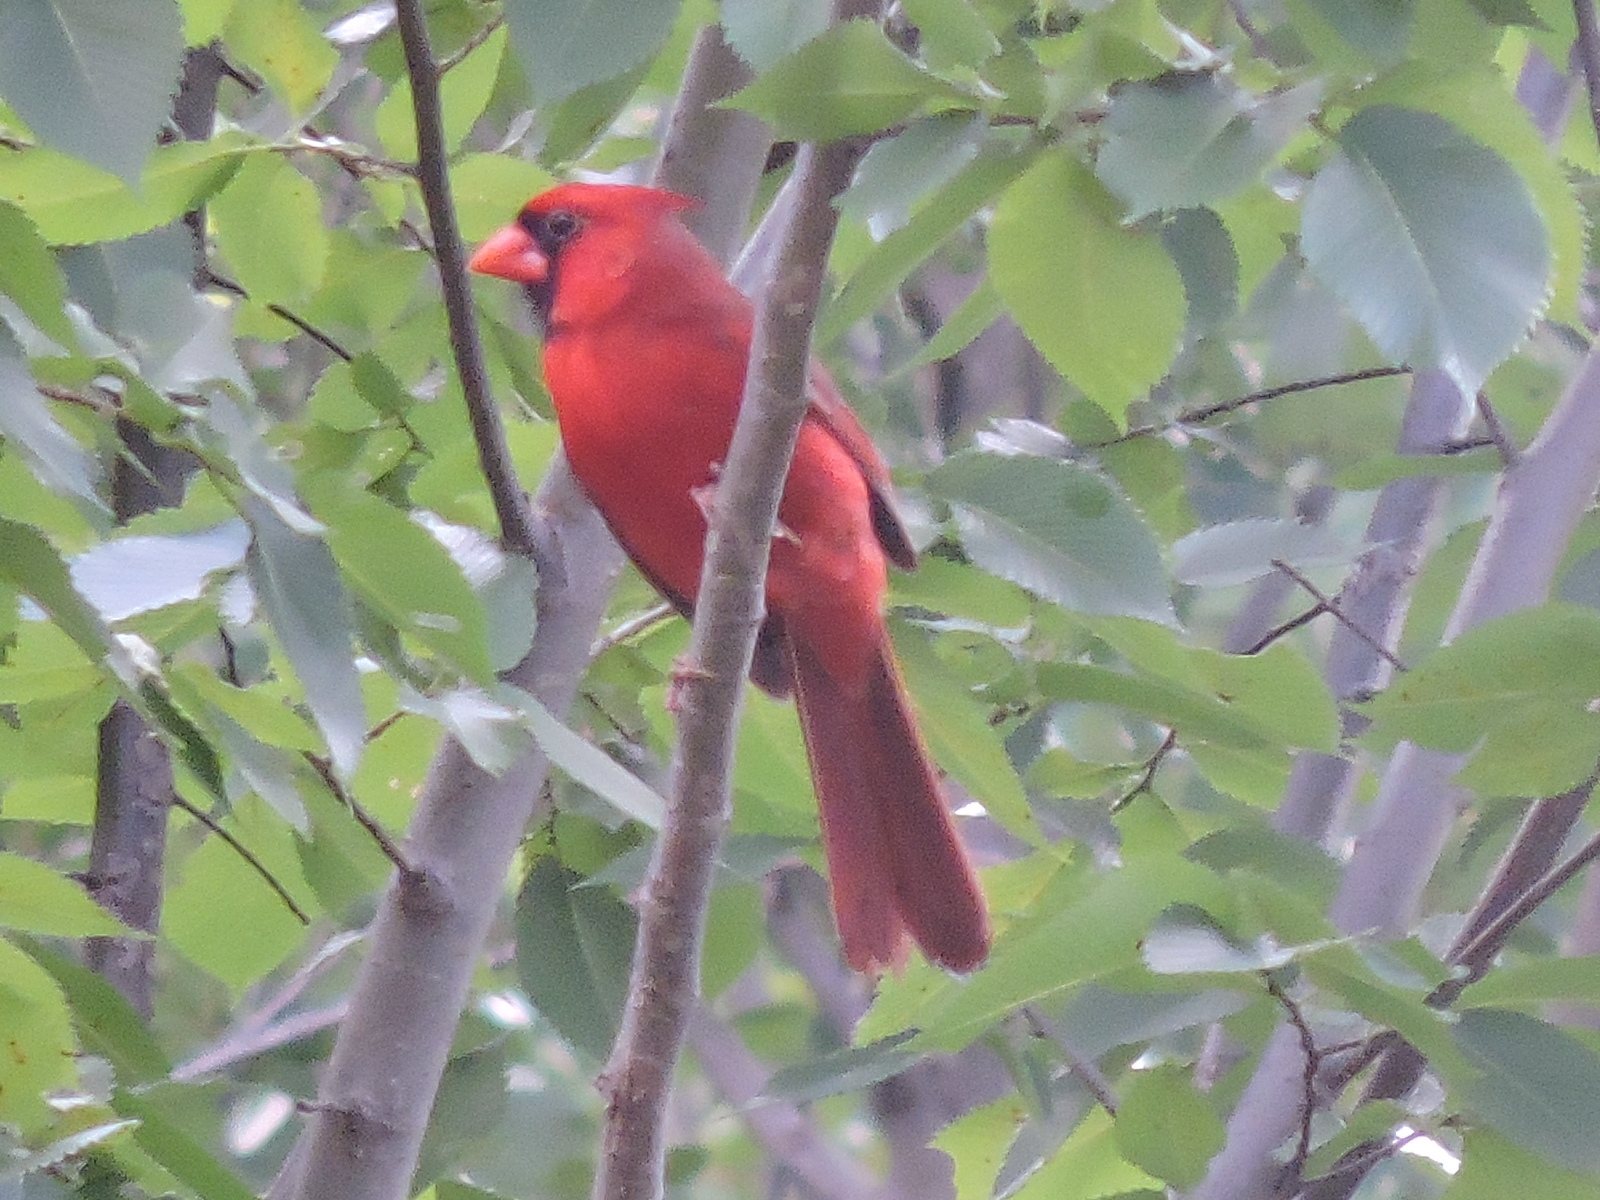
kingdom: Animalia
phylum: Chordata
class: Aves
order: Passeriformes
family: Cardinalidae
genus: Cardinalis
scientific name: Cardinalis cardinalis
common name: Northern cardinal
